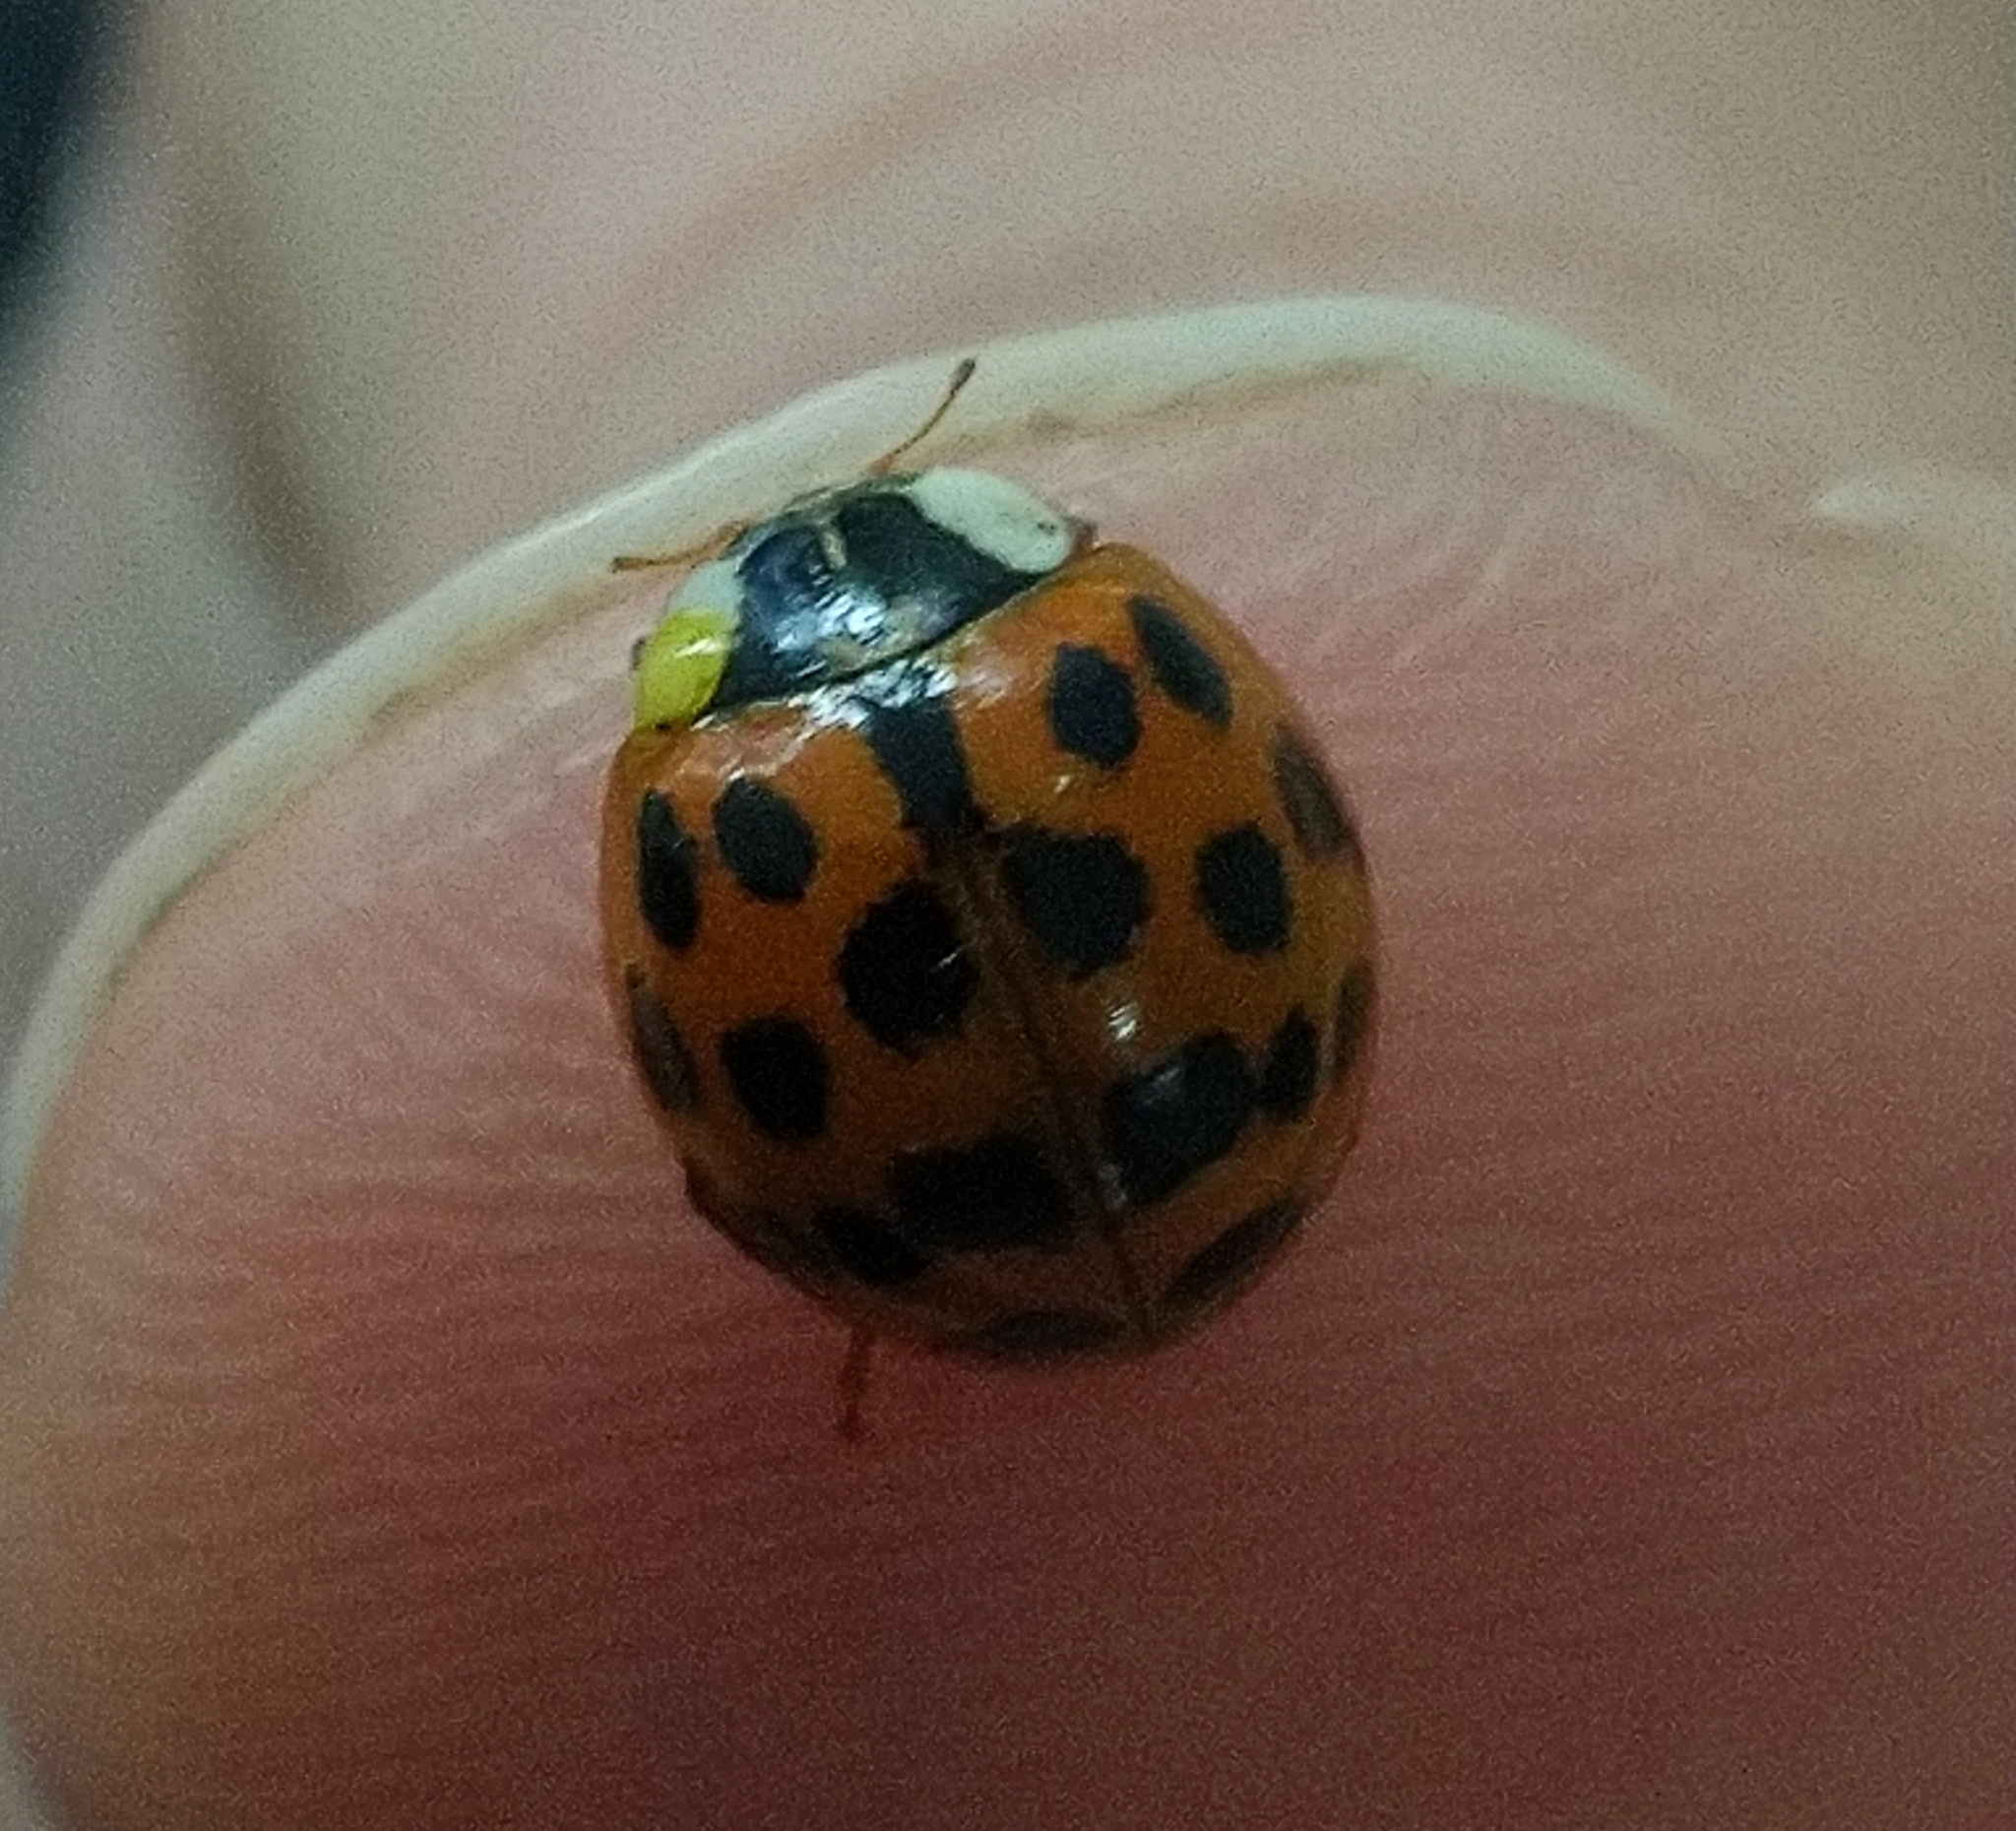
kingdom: Animalia
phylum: Arthropoda
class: Insecta
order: Coleoptera
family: Coccinellidae
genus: Harmonia
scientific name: Harmonia axyridis
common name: Harlequin ladybird
